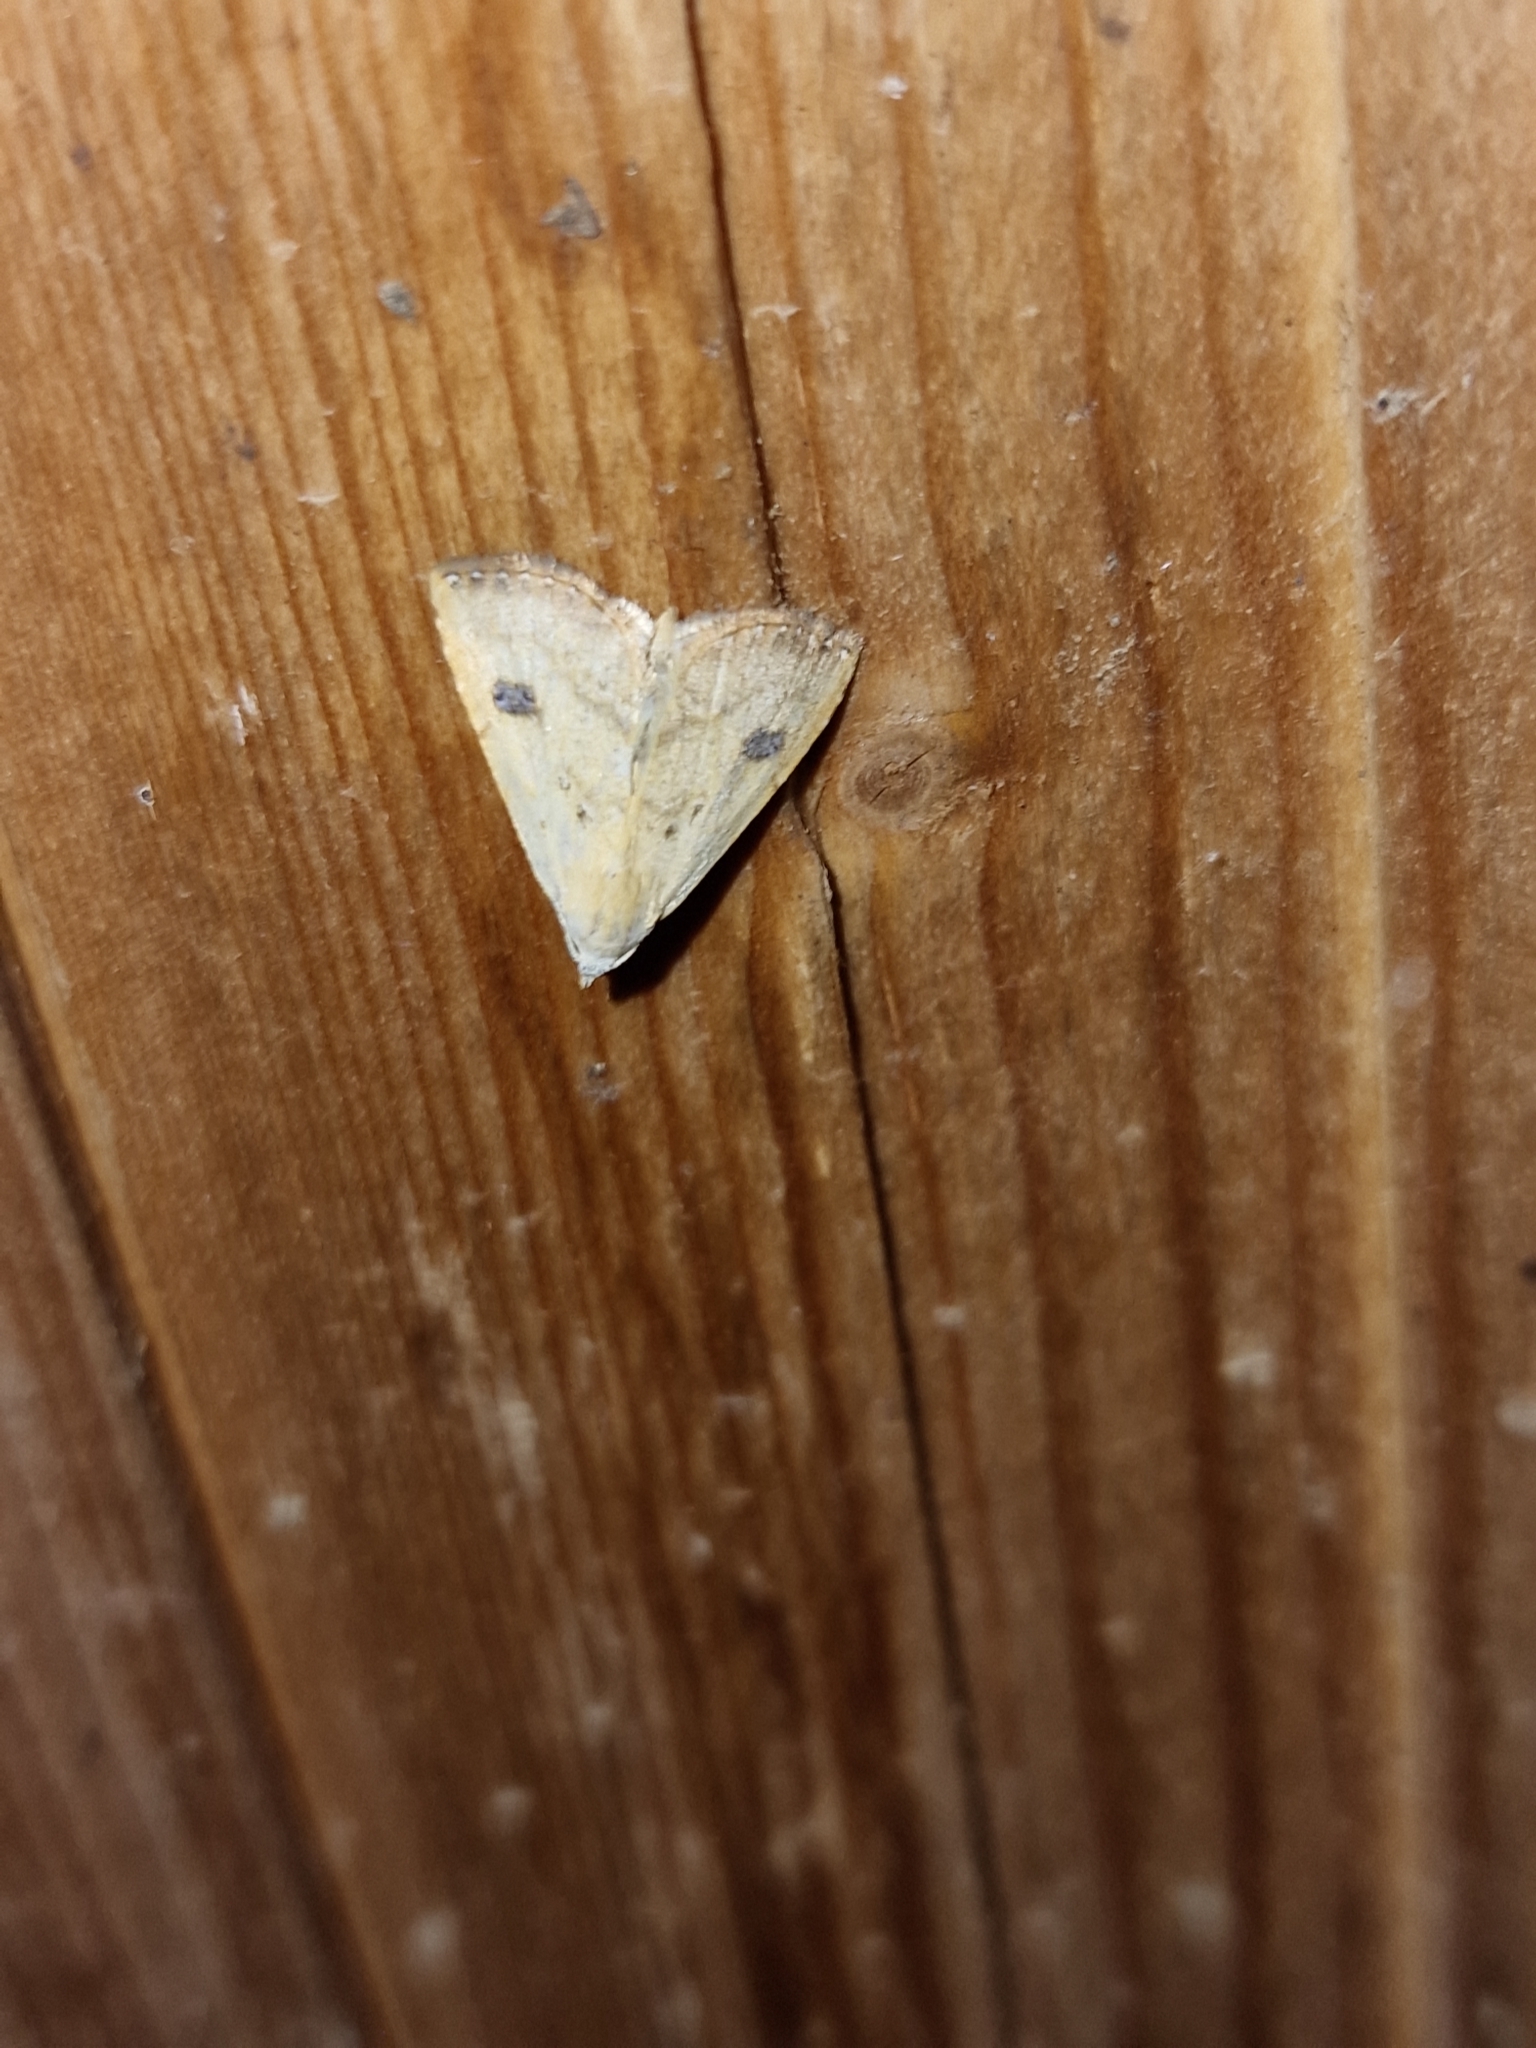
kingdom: Animalia
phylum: Arthropoda
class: Insecta
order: Lepidoptera
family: Erebidae
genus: Rivula
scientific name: Rivula sericealis
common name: Straw dot
